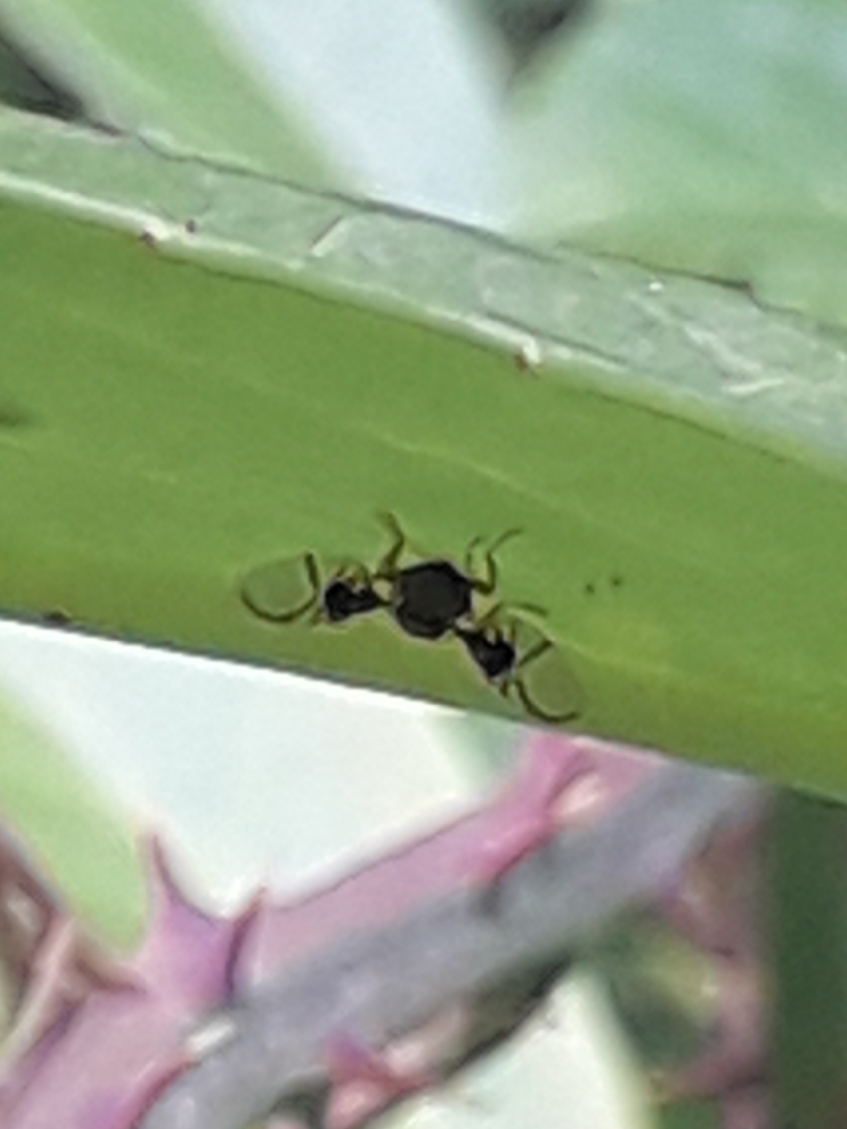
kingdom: Animalia
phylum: Arthropoda
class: Insecta
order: Diptera
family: Tephritidae
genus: Anomoia
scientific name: Anomoia purmunda
